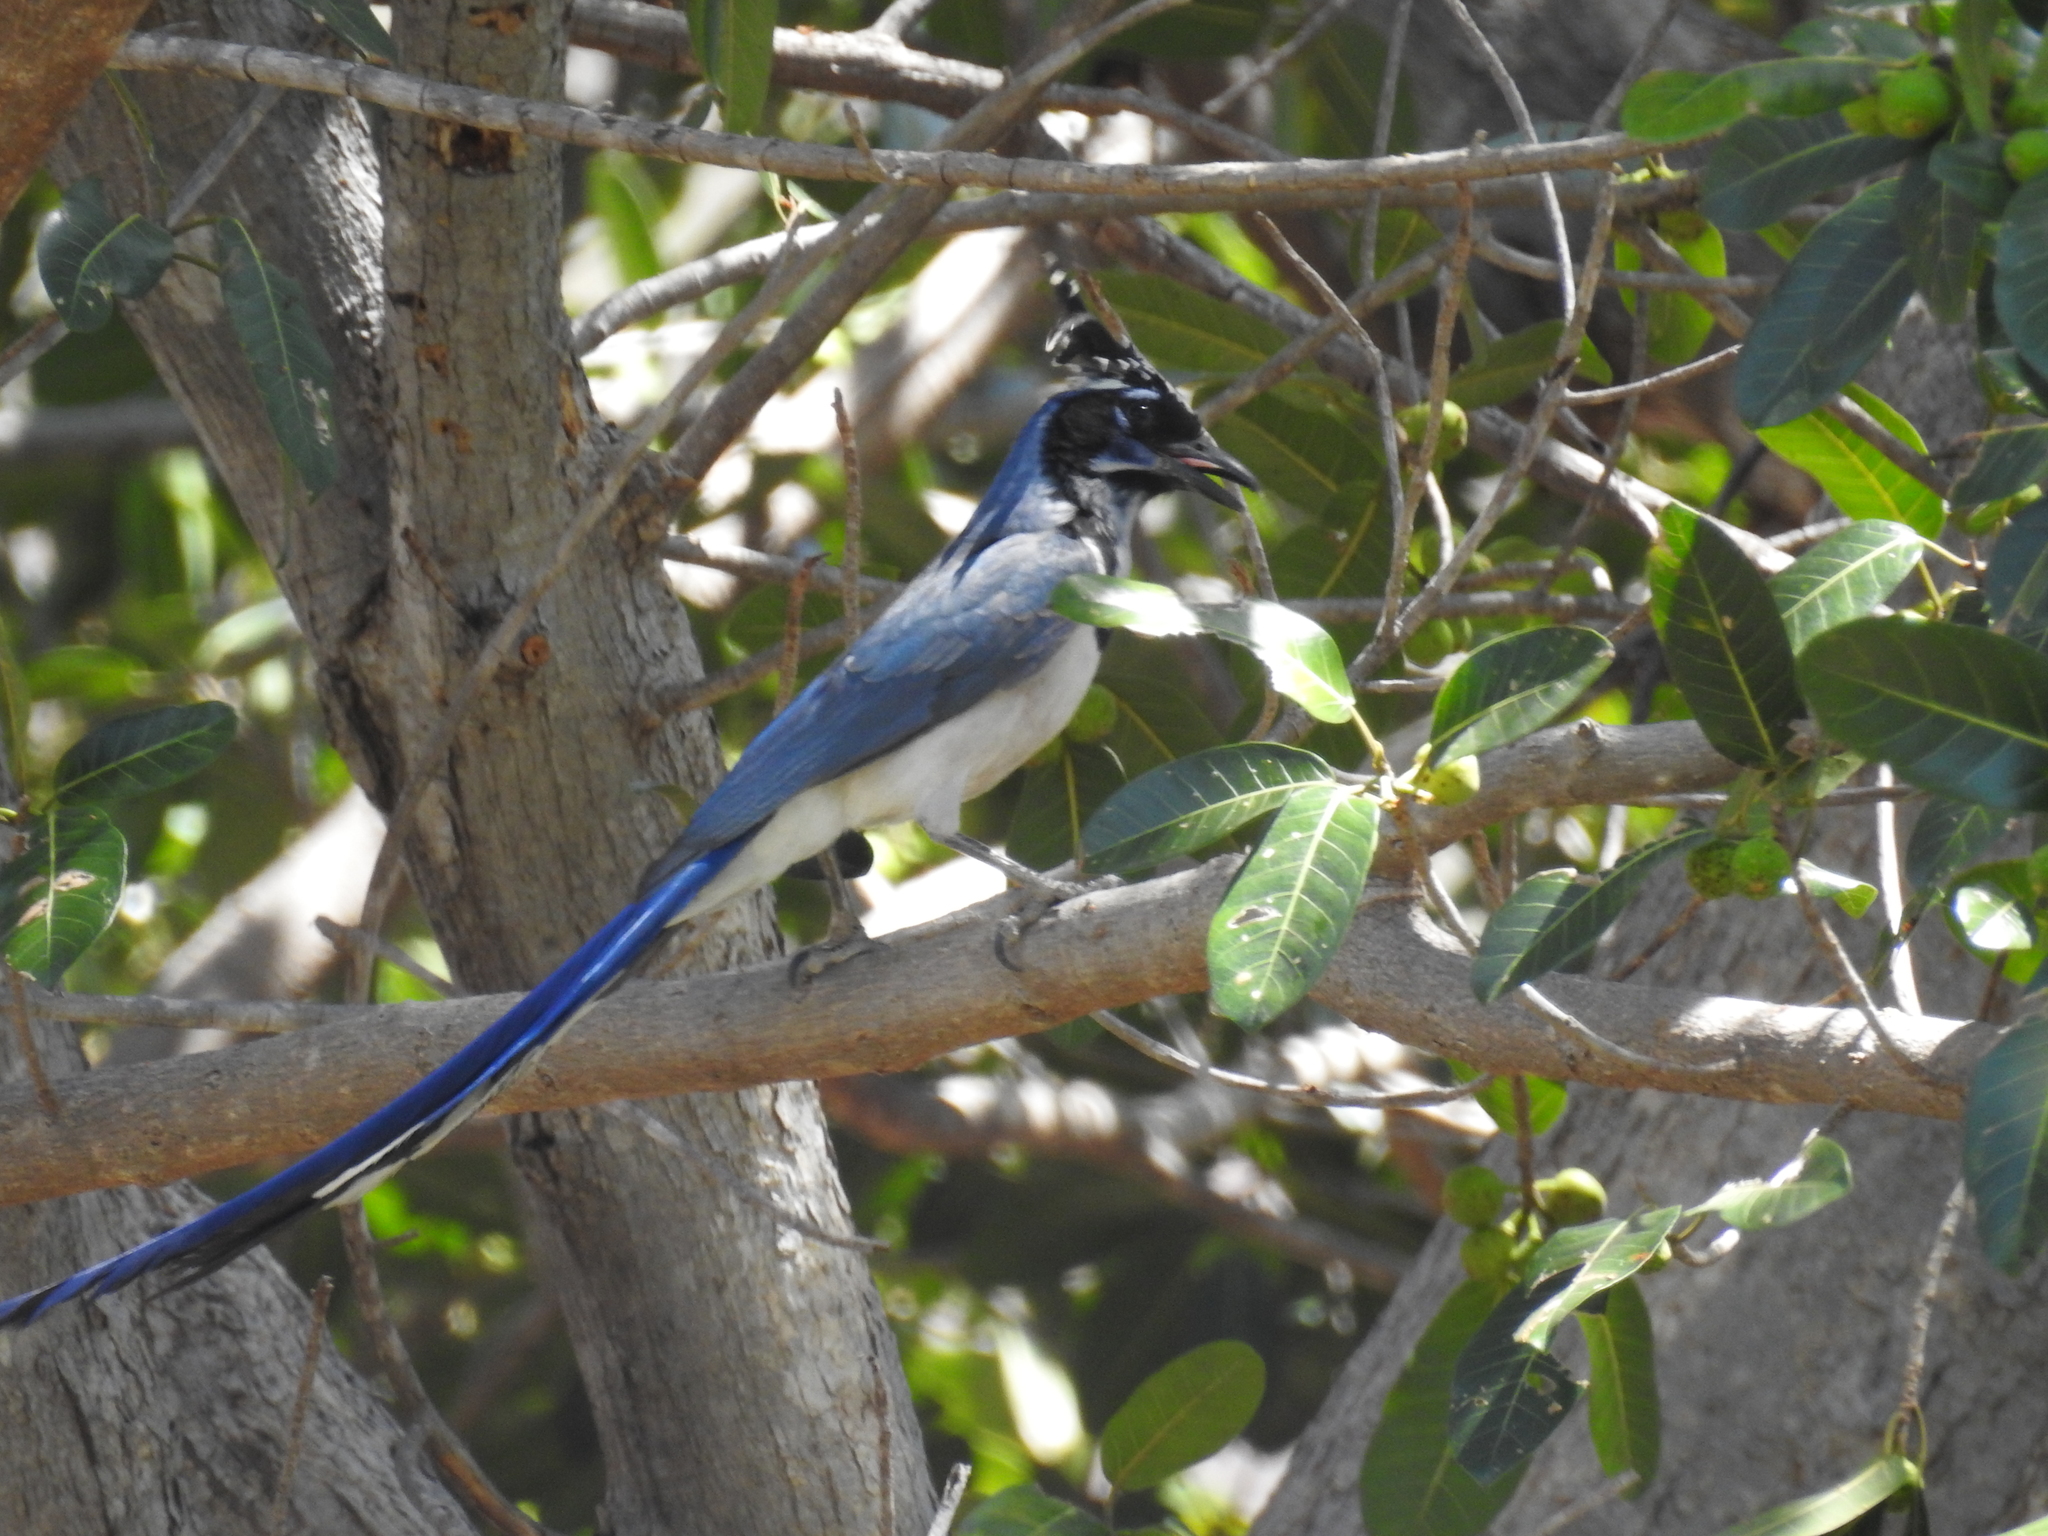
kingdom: Animalia
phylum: Chordata
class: Aves
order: Passeriformes
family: Corvidae
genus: Calocitta
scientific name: Calocitta colliei
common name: Black-throated magpie-jay
